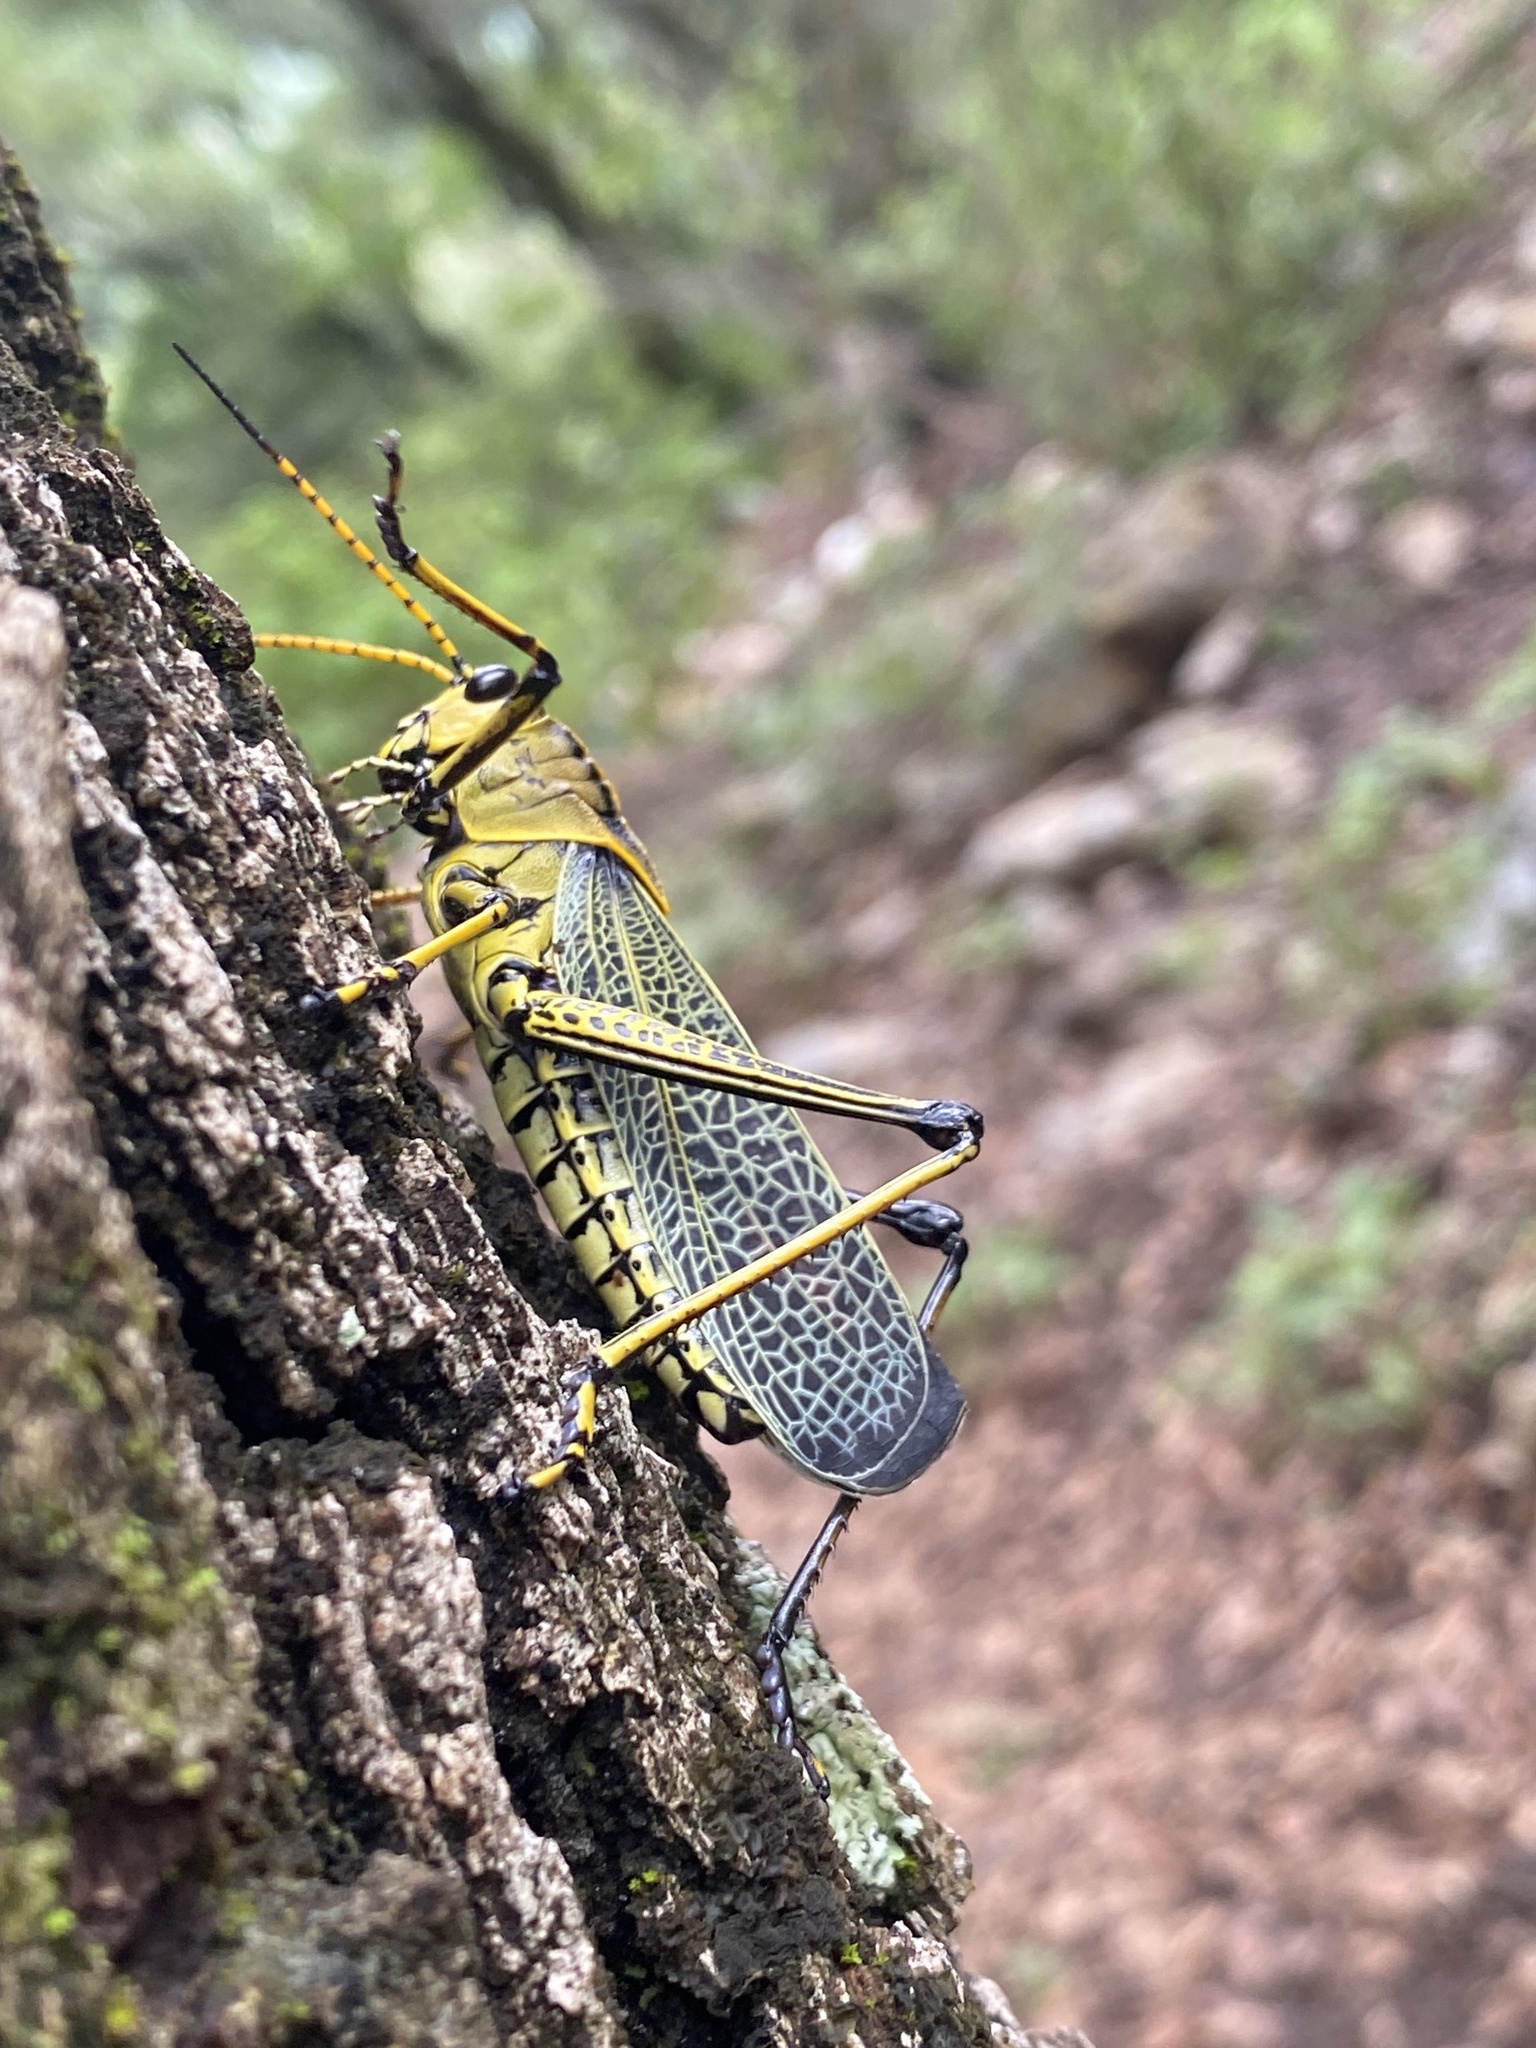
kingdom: Animalia
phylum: Arthropoda
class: Insecta
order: Orthoptera
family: Romaleidae
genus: Romalea
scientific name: Romalea
